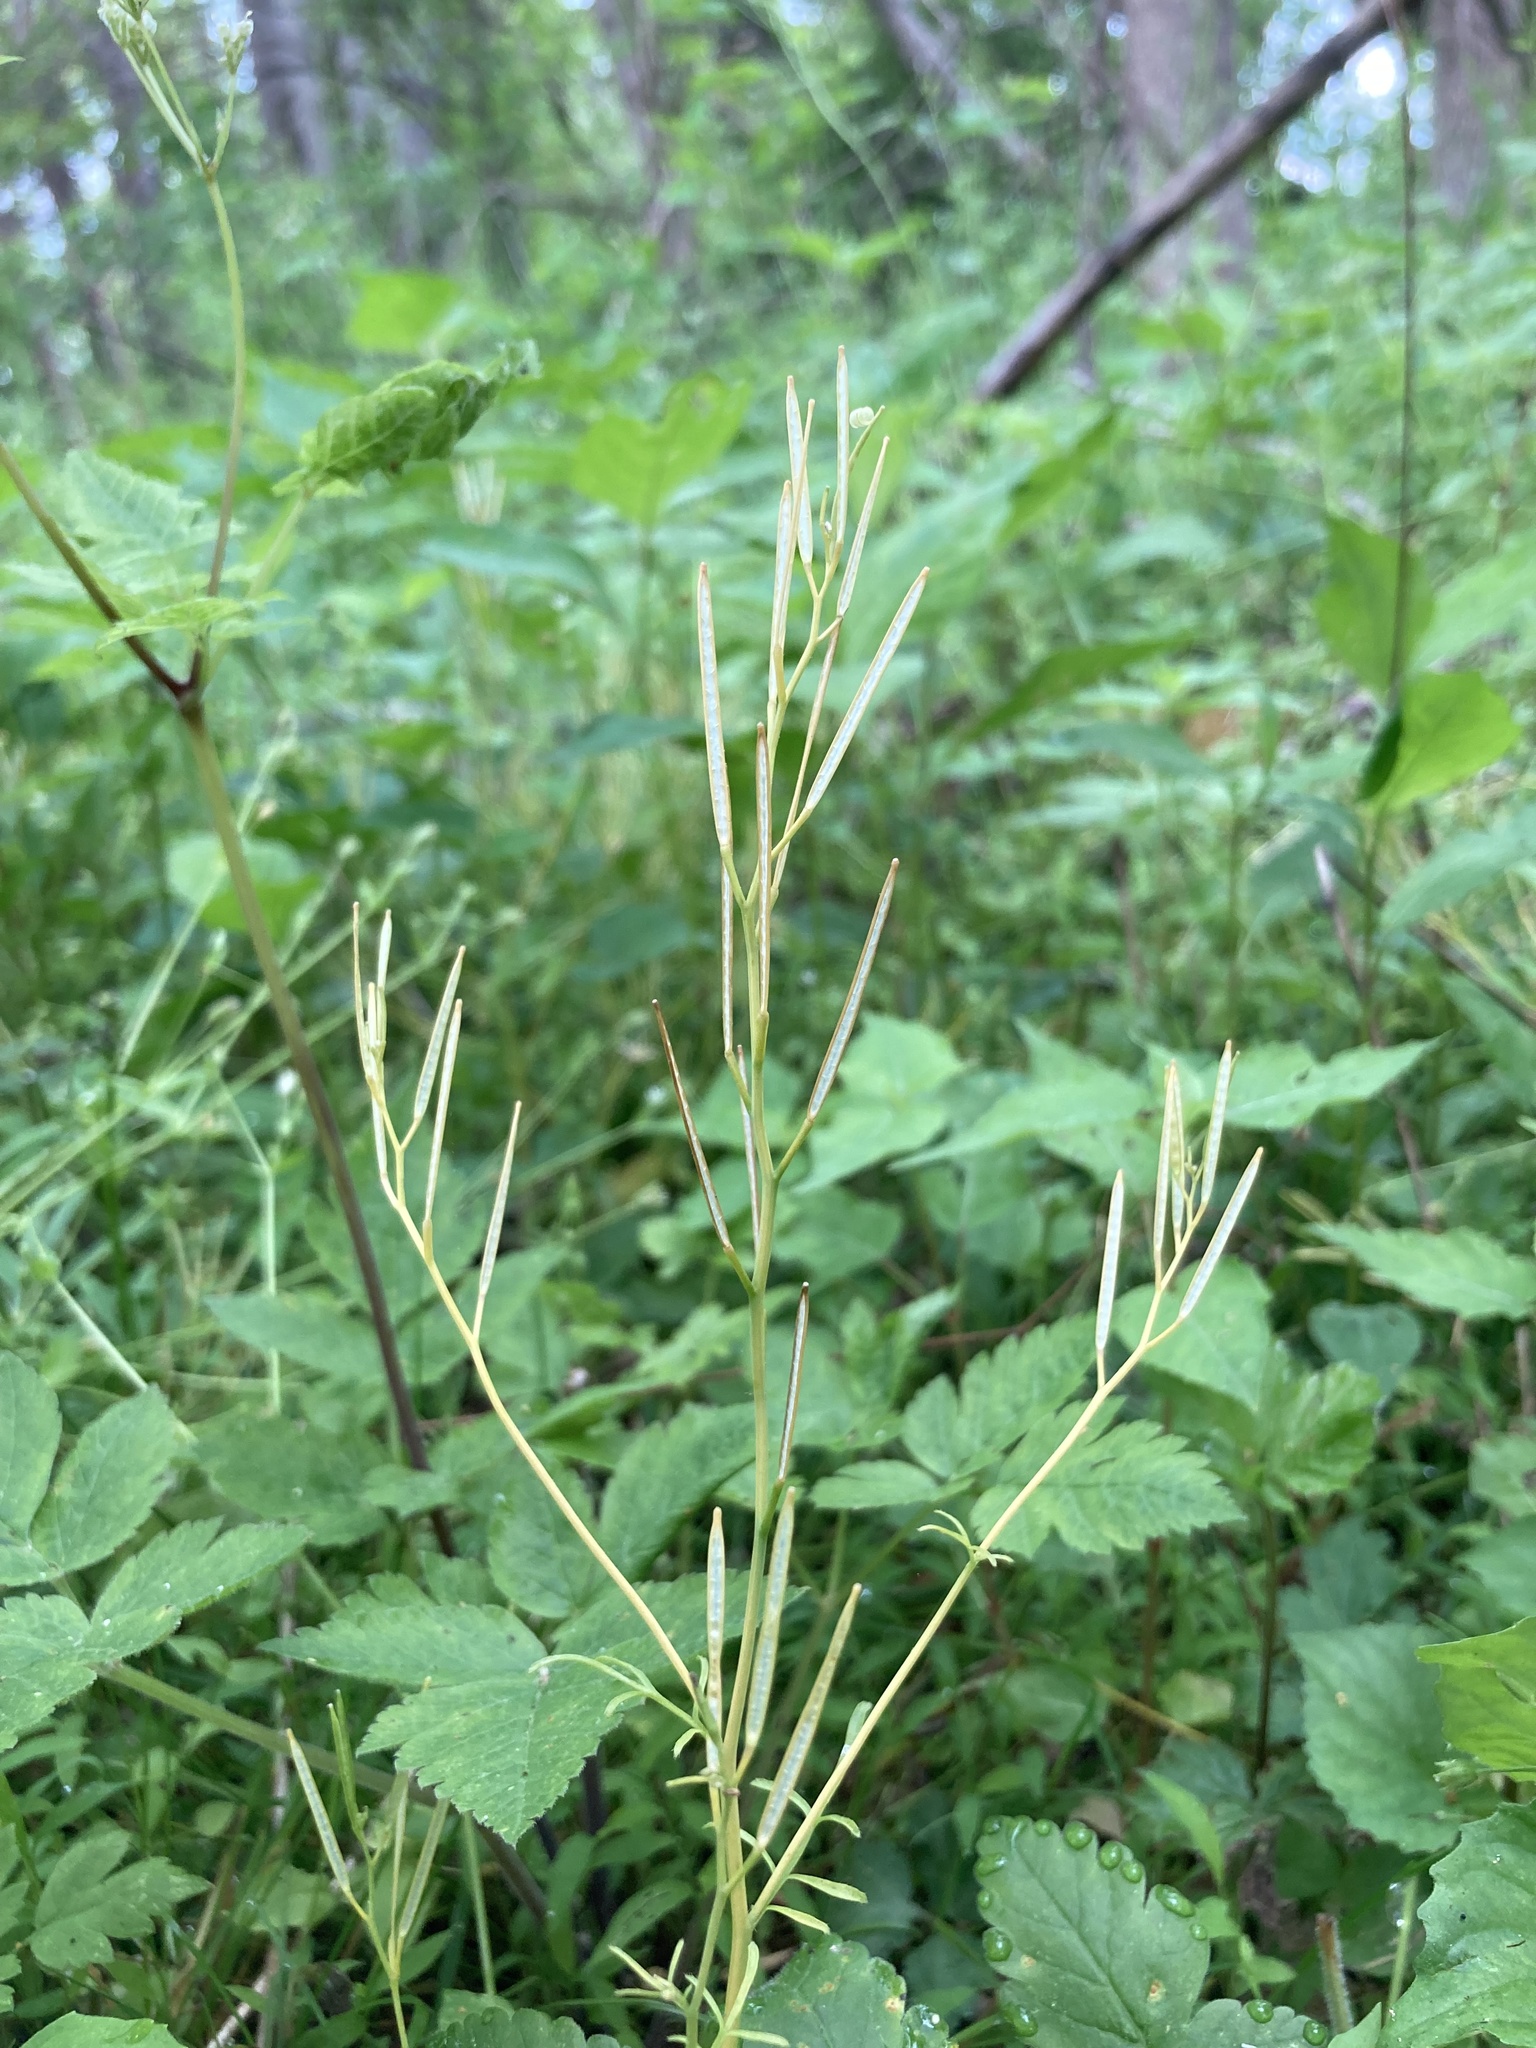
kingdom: Plantae
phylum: Tracheophyta
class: Magnoliopsida
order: Brassicales
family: Brassicaceae
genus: Cardamine
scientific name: Cardamine hirsuta
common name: Hairy bittercress
